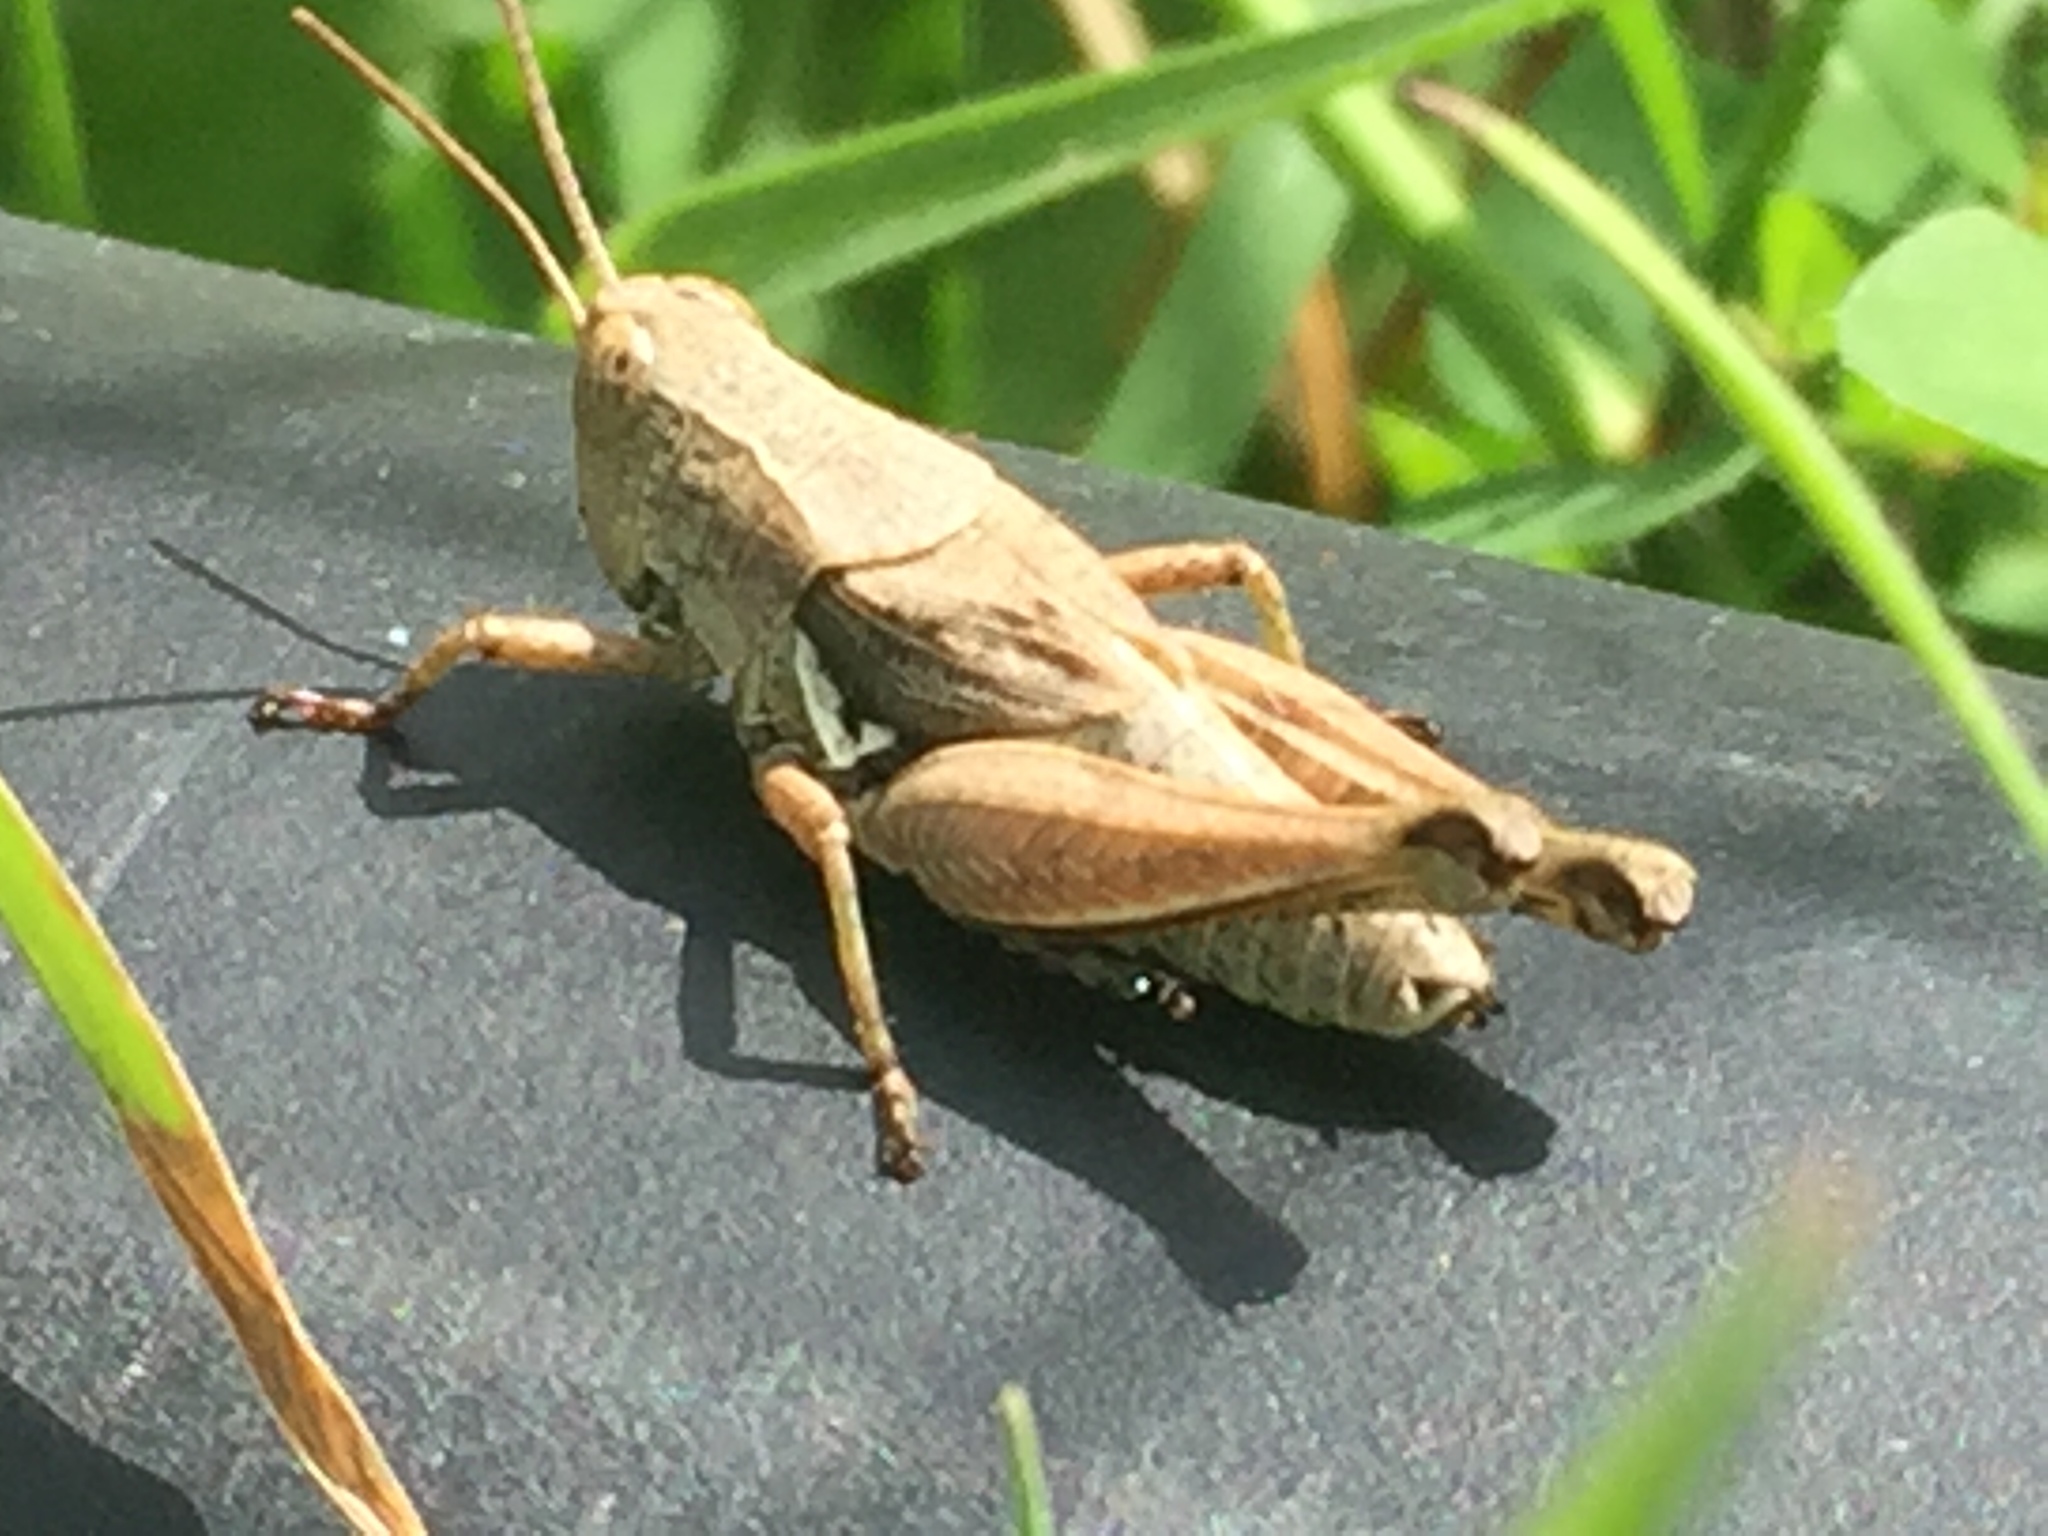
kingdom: Animalia
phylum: Arthropoda
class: Insecta
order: Orthoptera
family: Acrididae
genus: Phaulacridium
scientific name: Phaulacridium marginale
